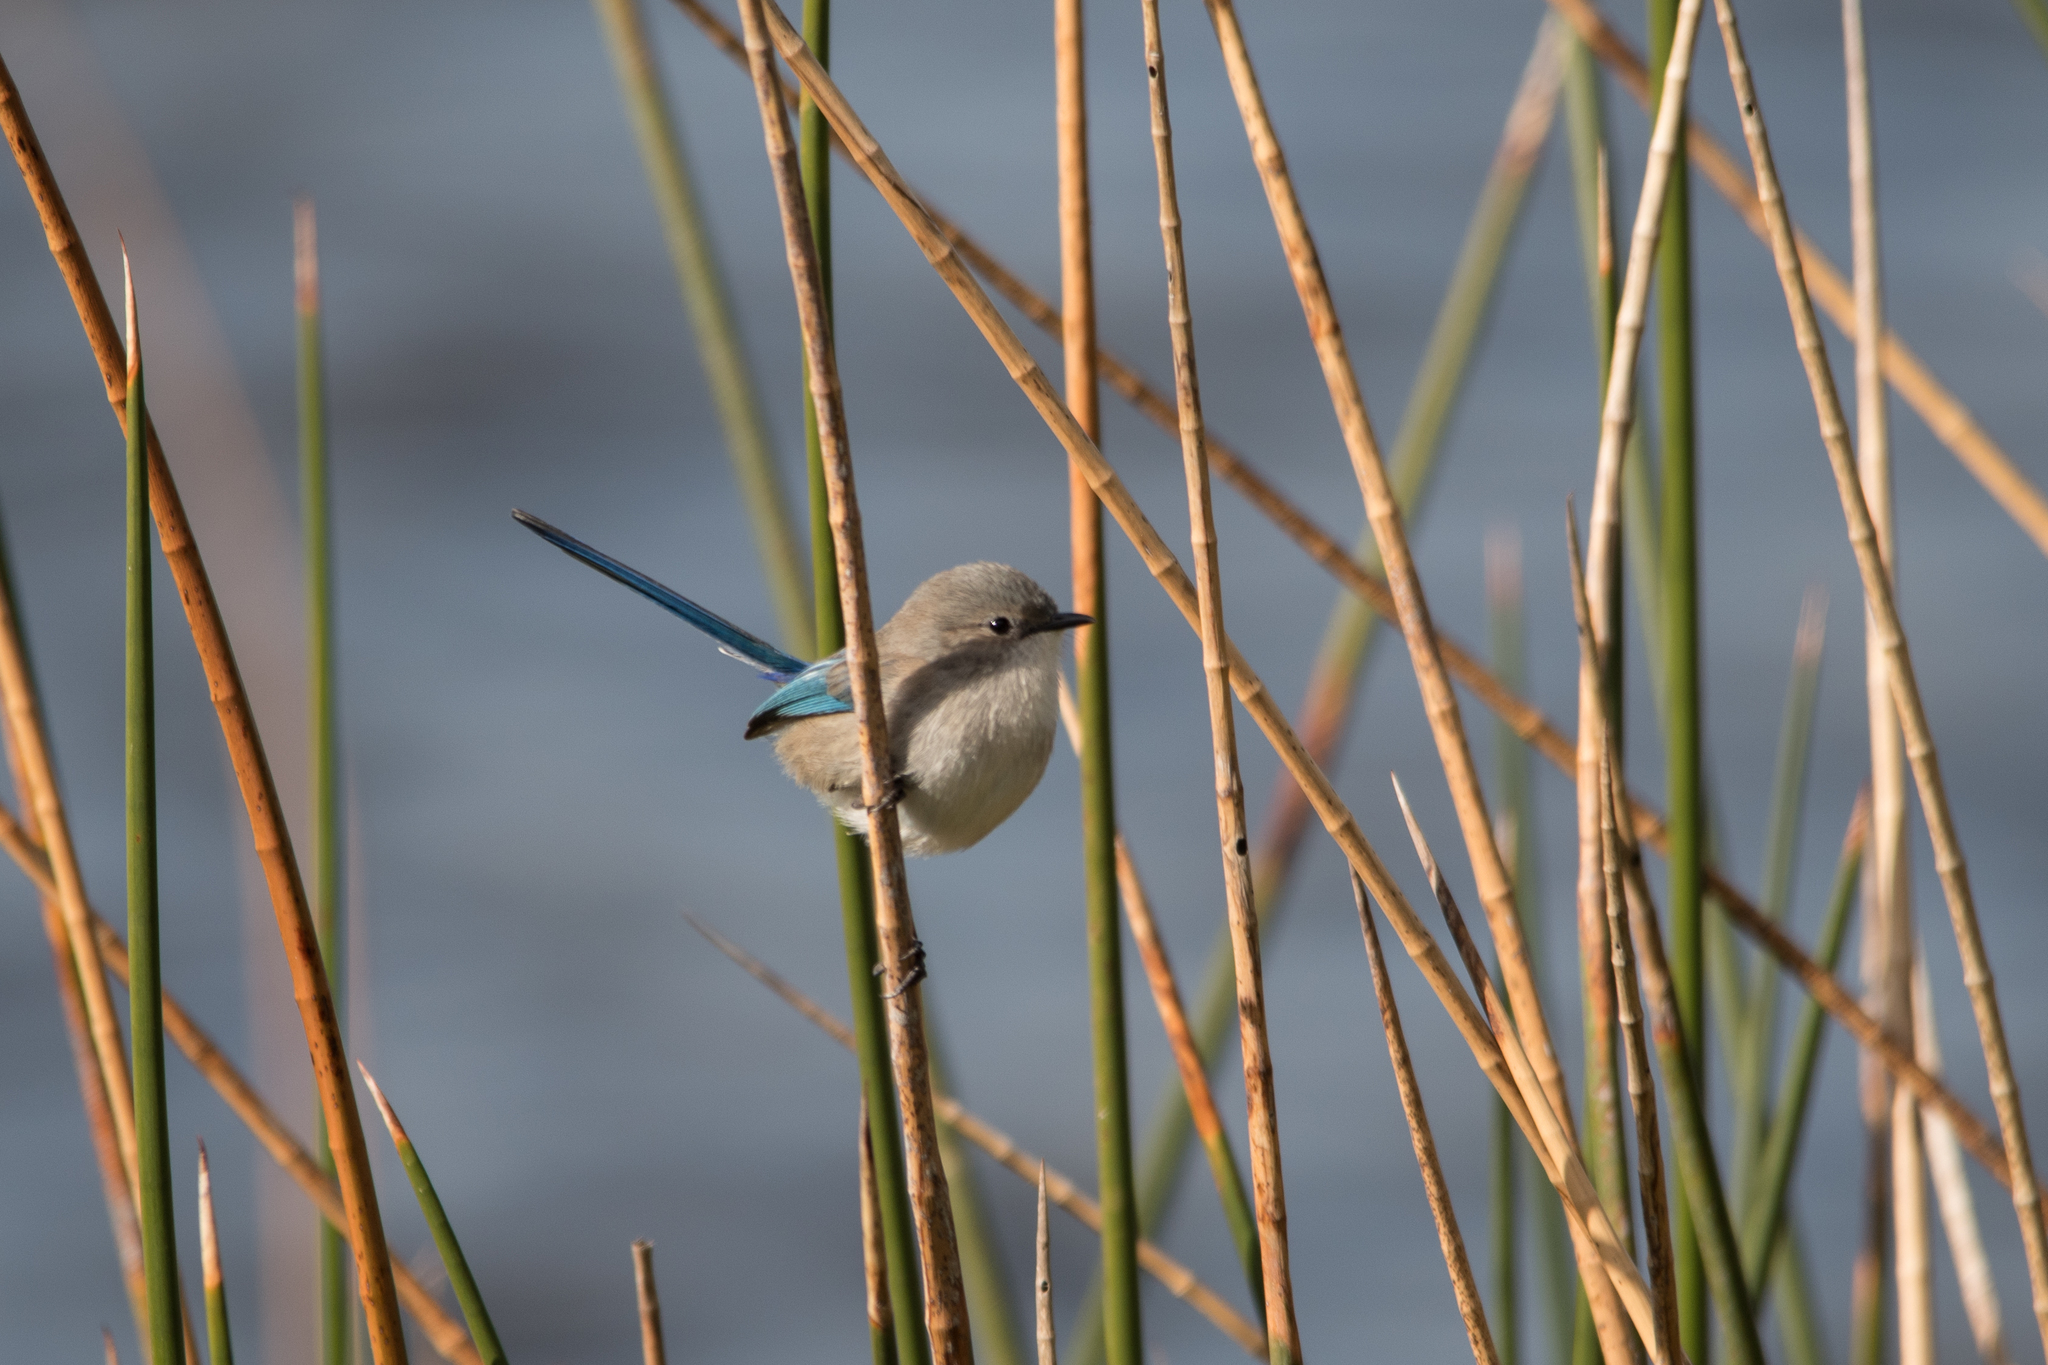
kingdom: Animalia
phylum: Chordata
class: Aves
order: Passeriformes
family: Maluridae
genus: Malurus
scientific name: Malurus splendens
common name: Splendid fairywren
